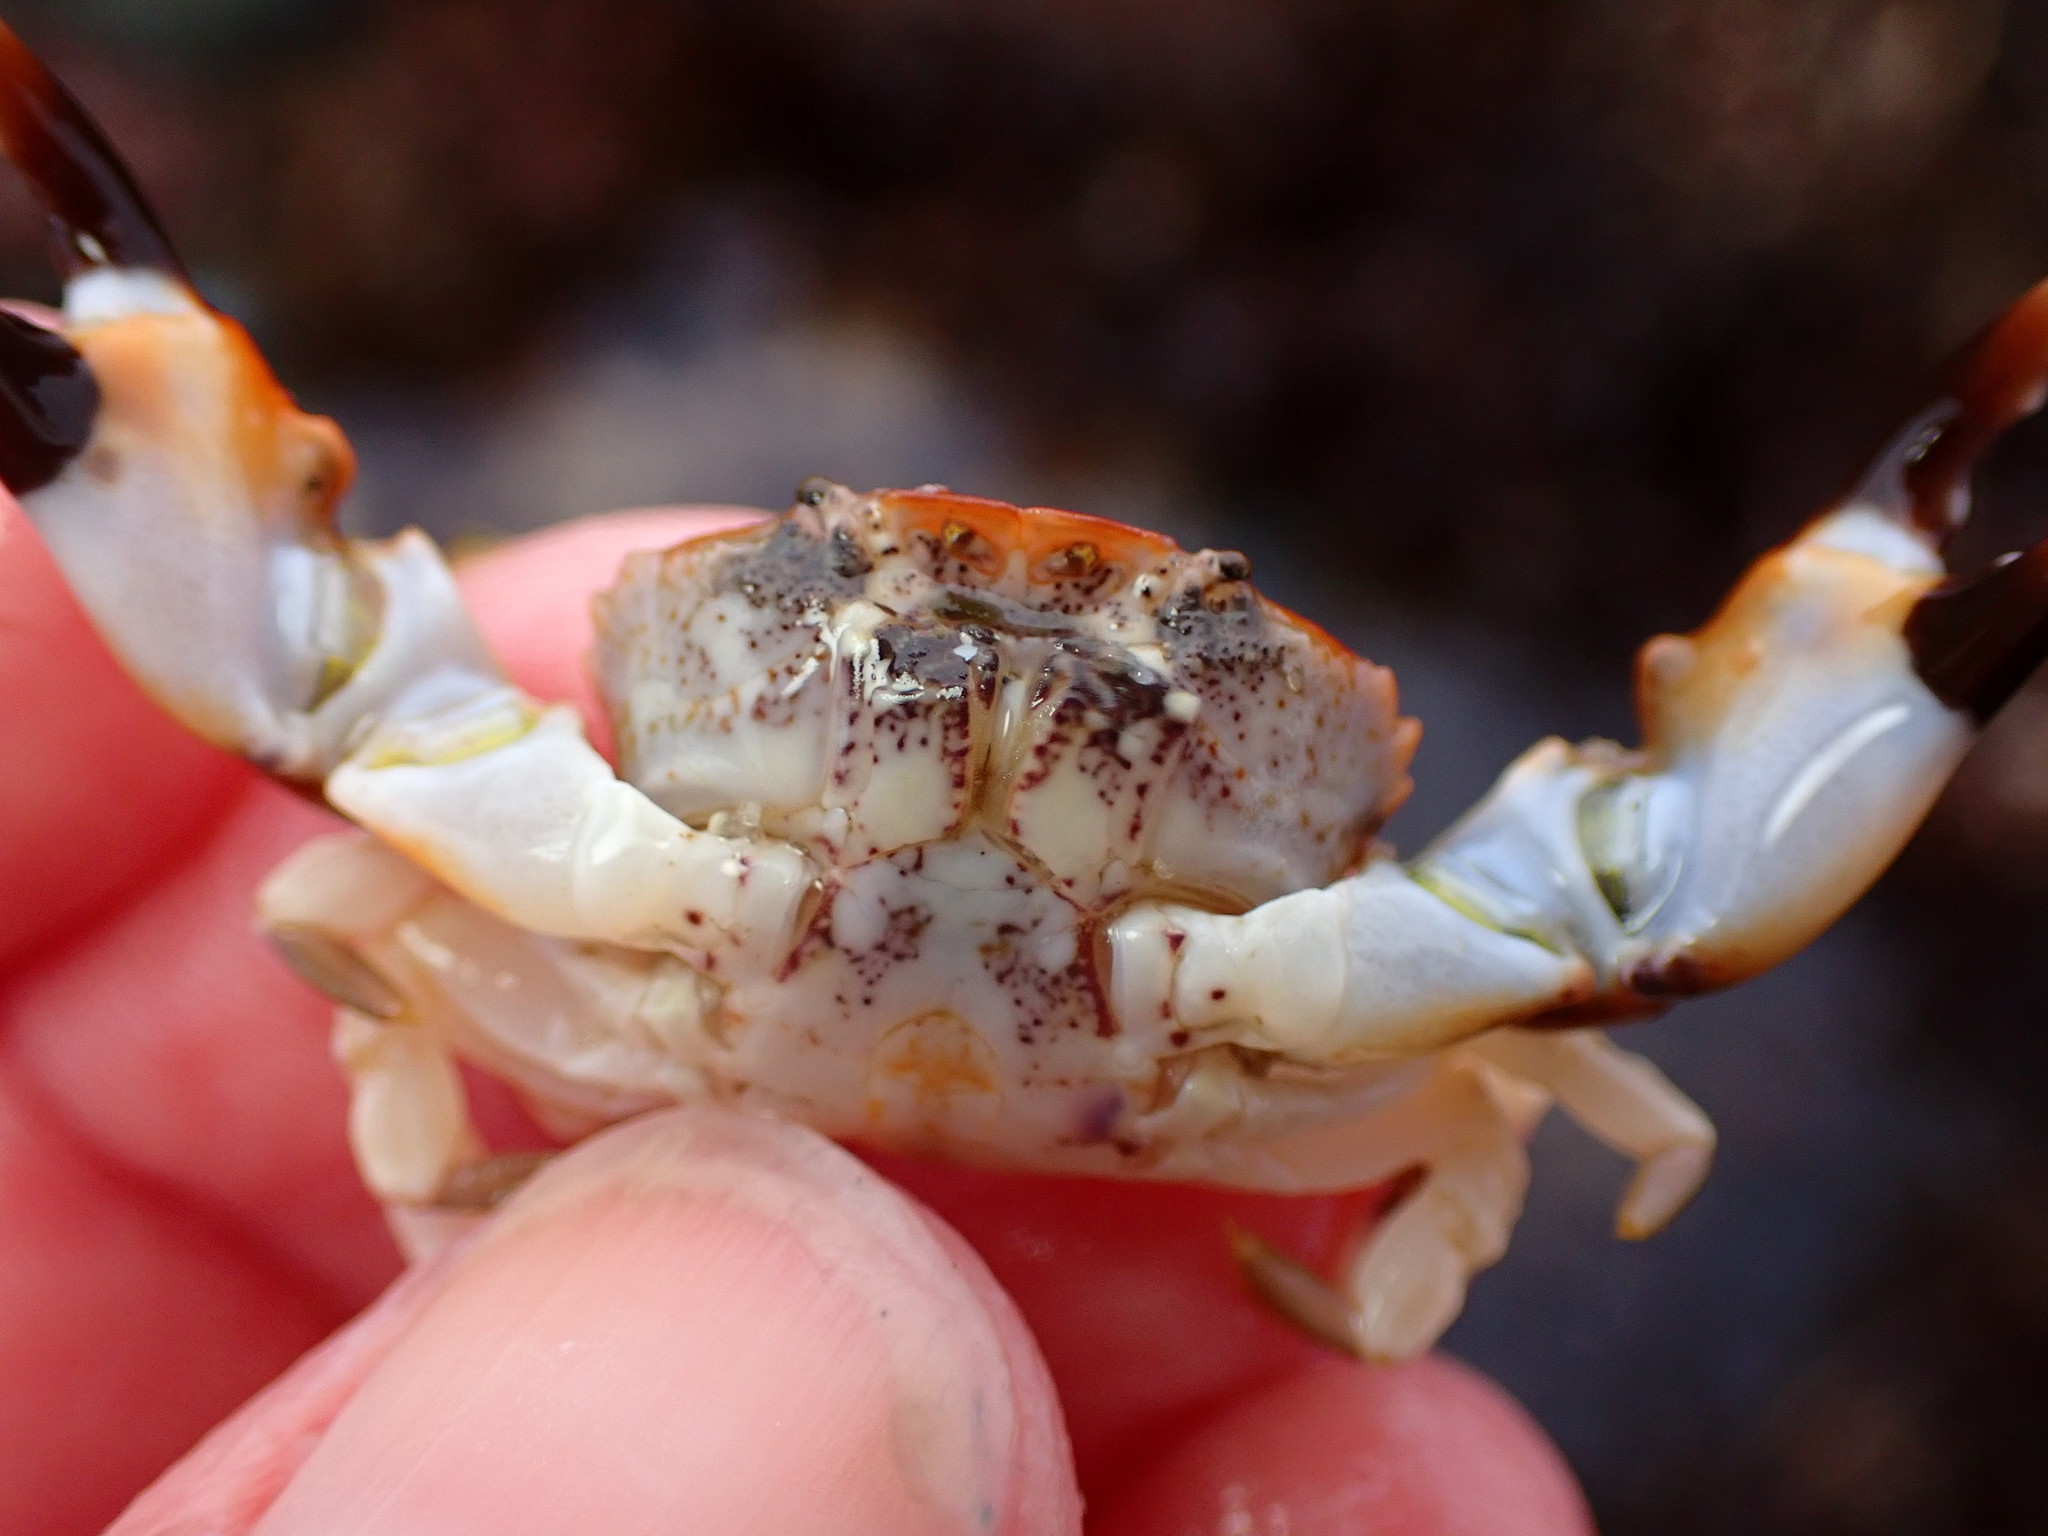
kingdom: Animalia
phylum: Arthropoda
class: Malacostraca
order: Decapoda
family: Panopeidae
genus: Lophopanopeus
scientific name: Lophopanopeus leucomanus
